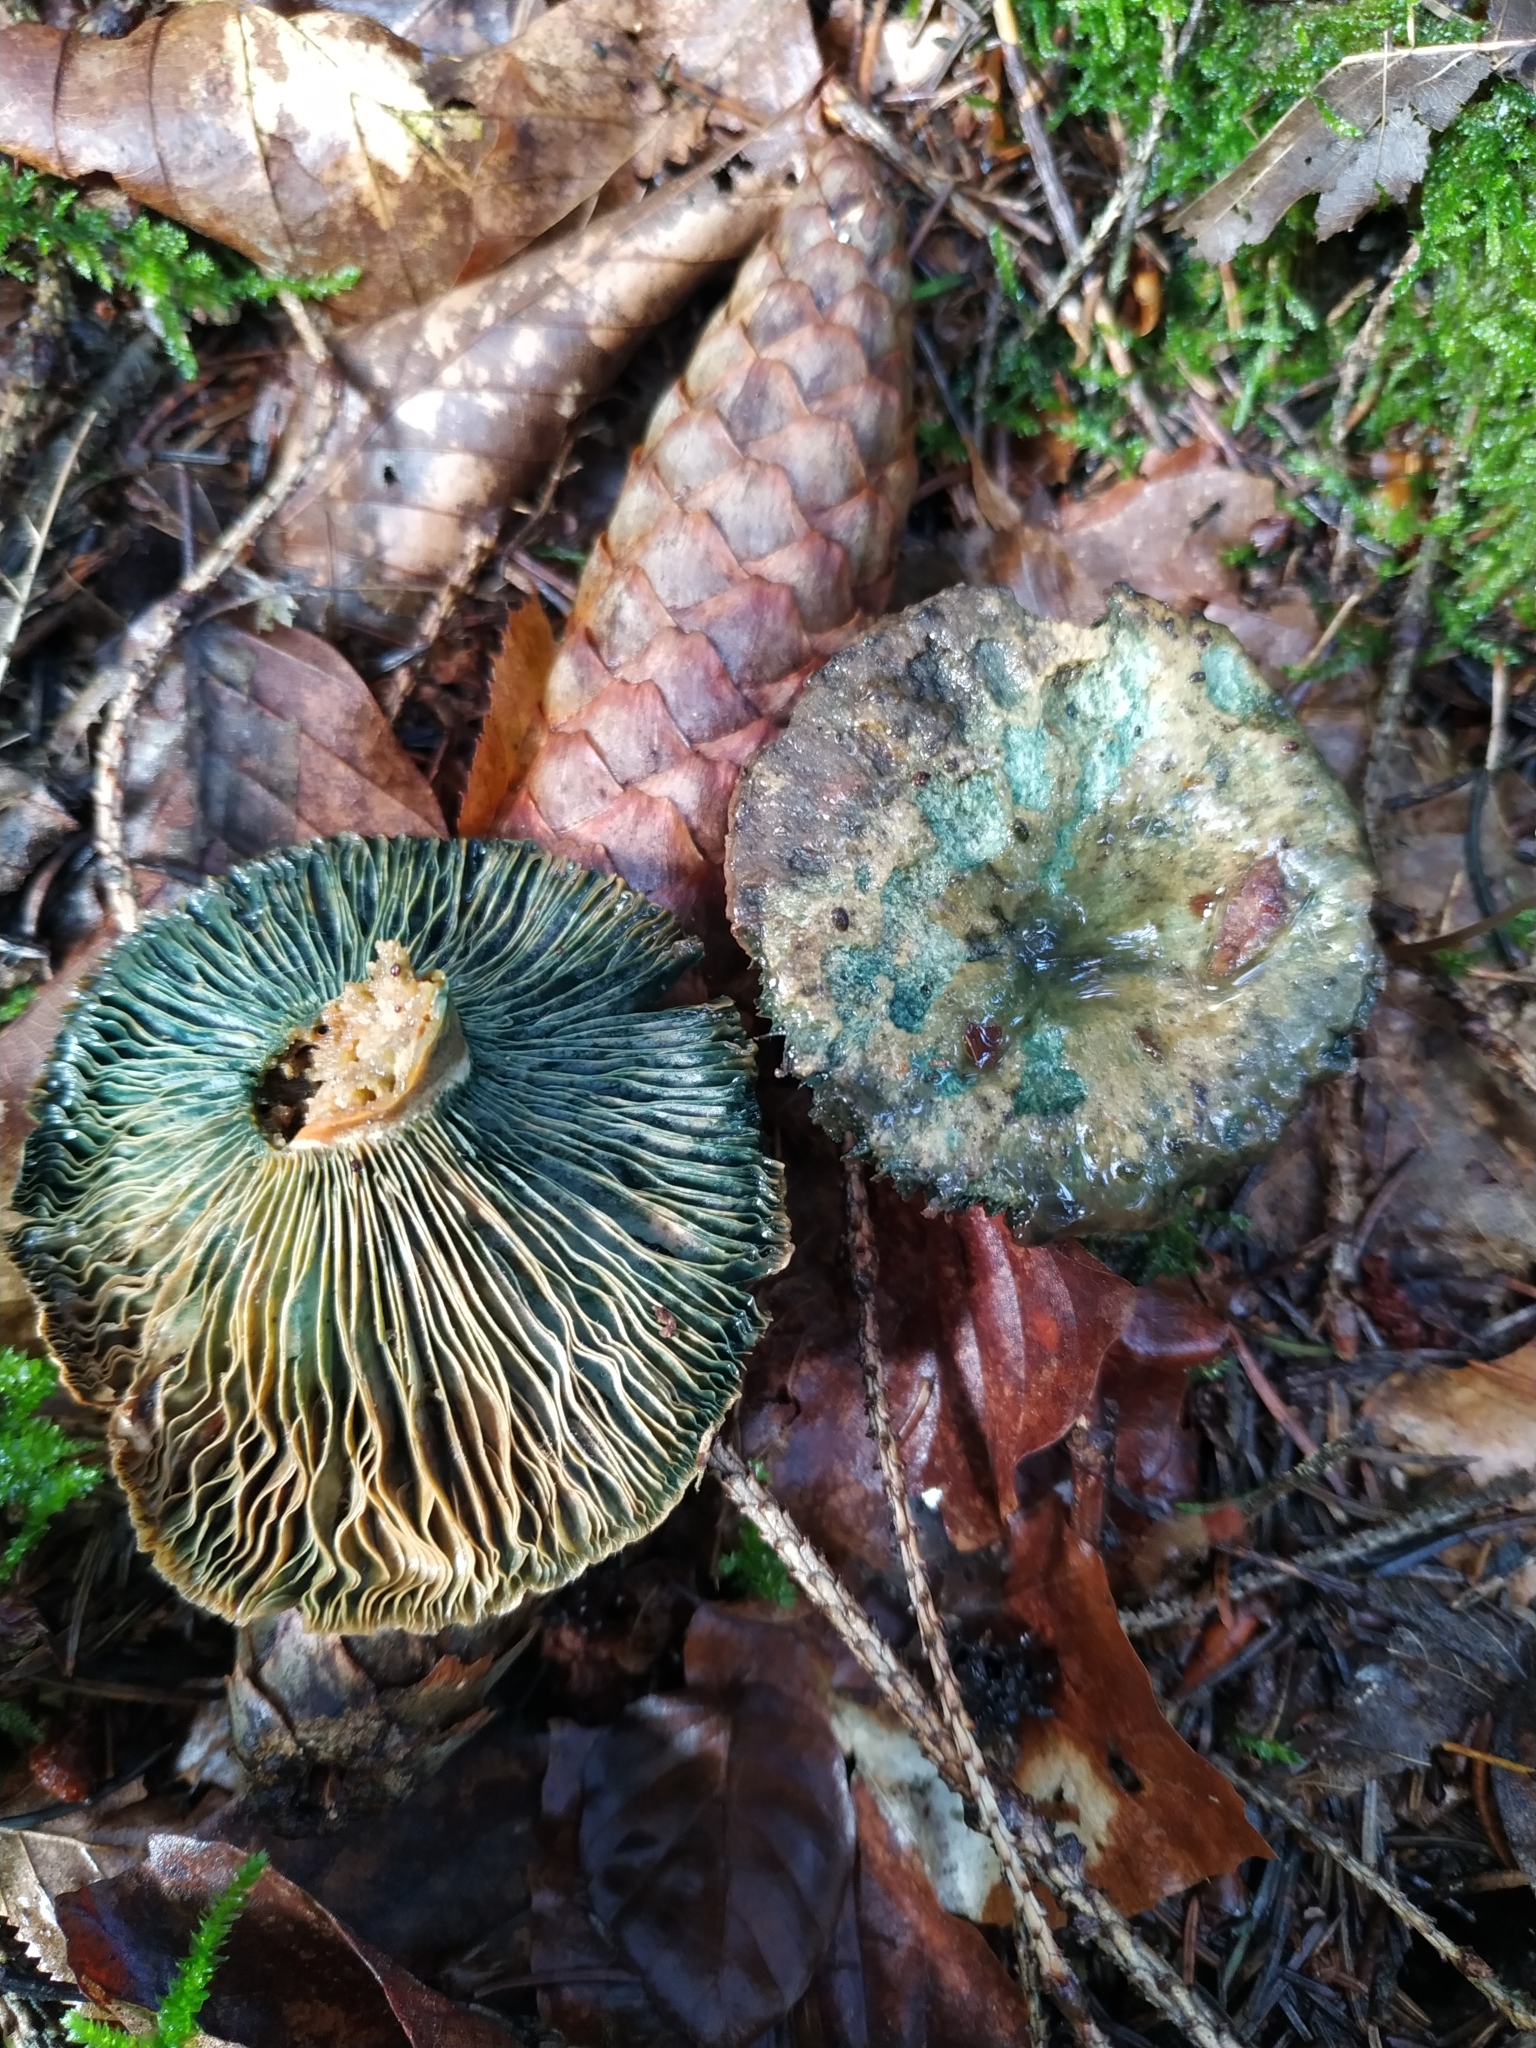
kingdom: Fungi
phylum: Basidiomycota
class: Agaricomycetes
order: Russulales
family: Russulaceae
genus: Lactarius
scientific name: Lactarius deterrimus
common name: False saffron milkcap
